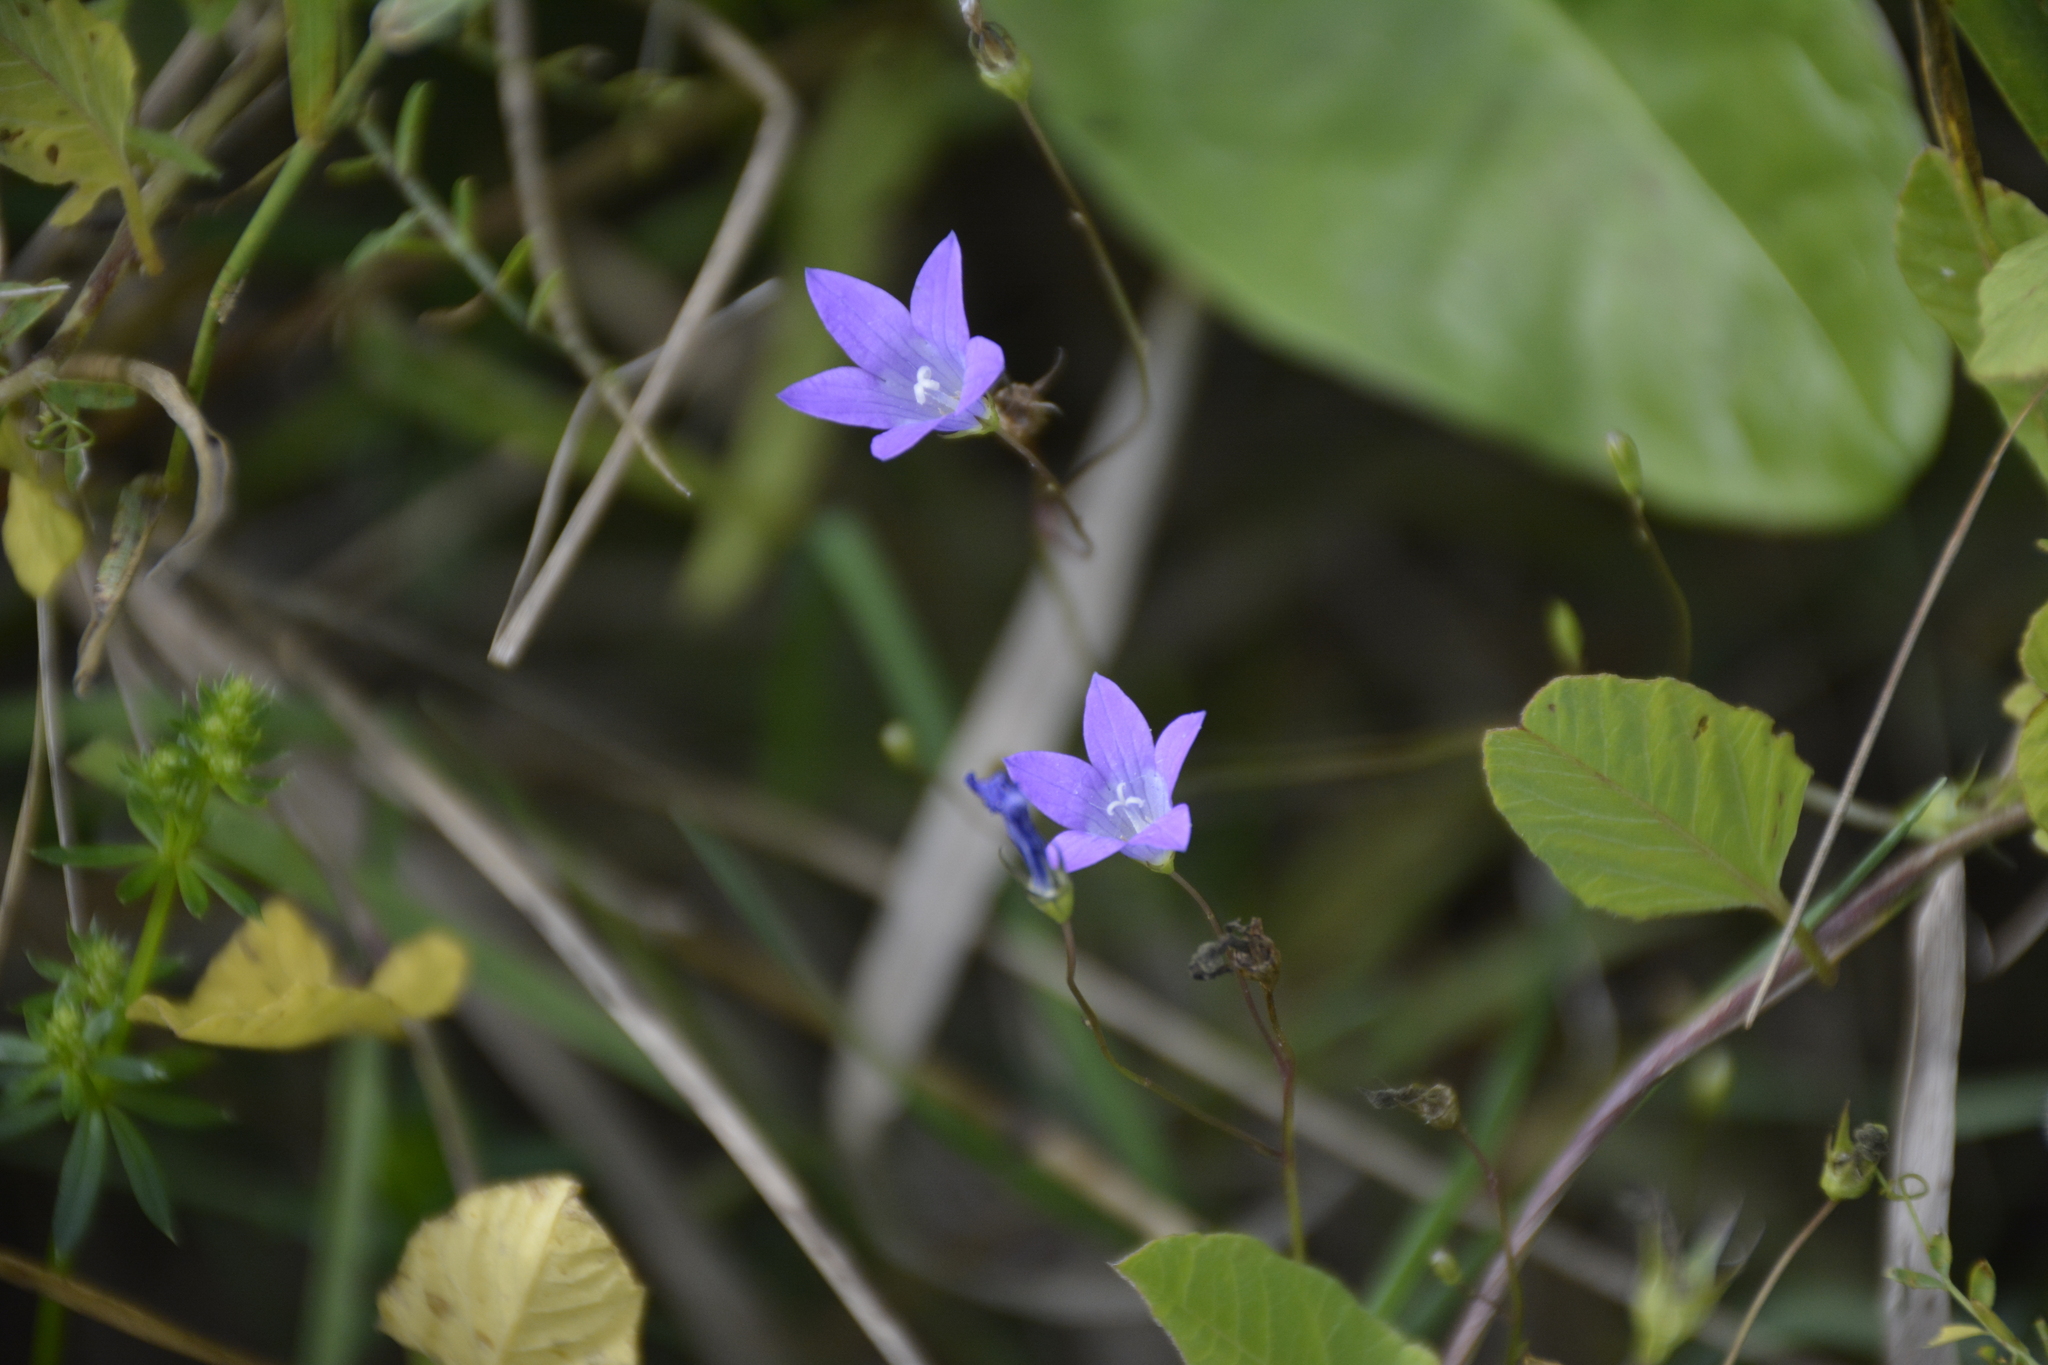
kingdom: Plantae
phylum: Tracheophyta
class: Magnoliopsida
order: Asterales
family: Campanulaceae
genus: Campanula
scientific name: Campanula patula
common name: Spreading bellflower
